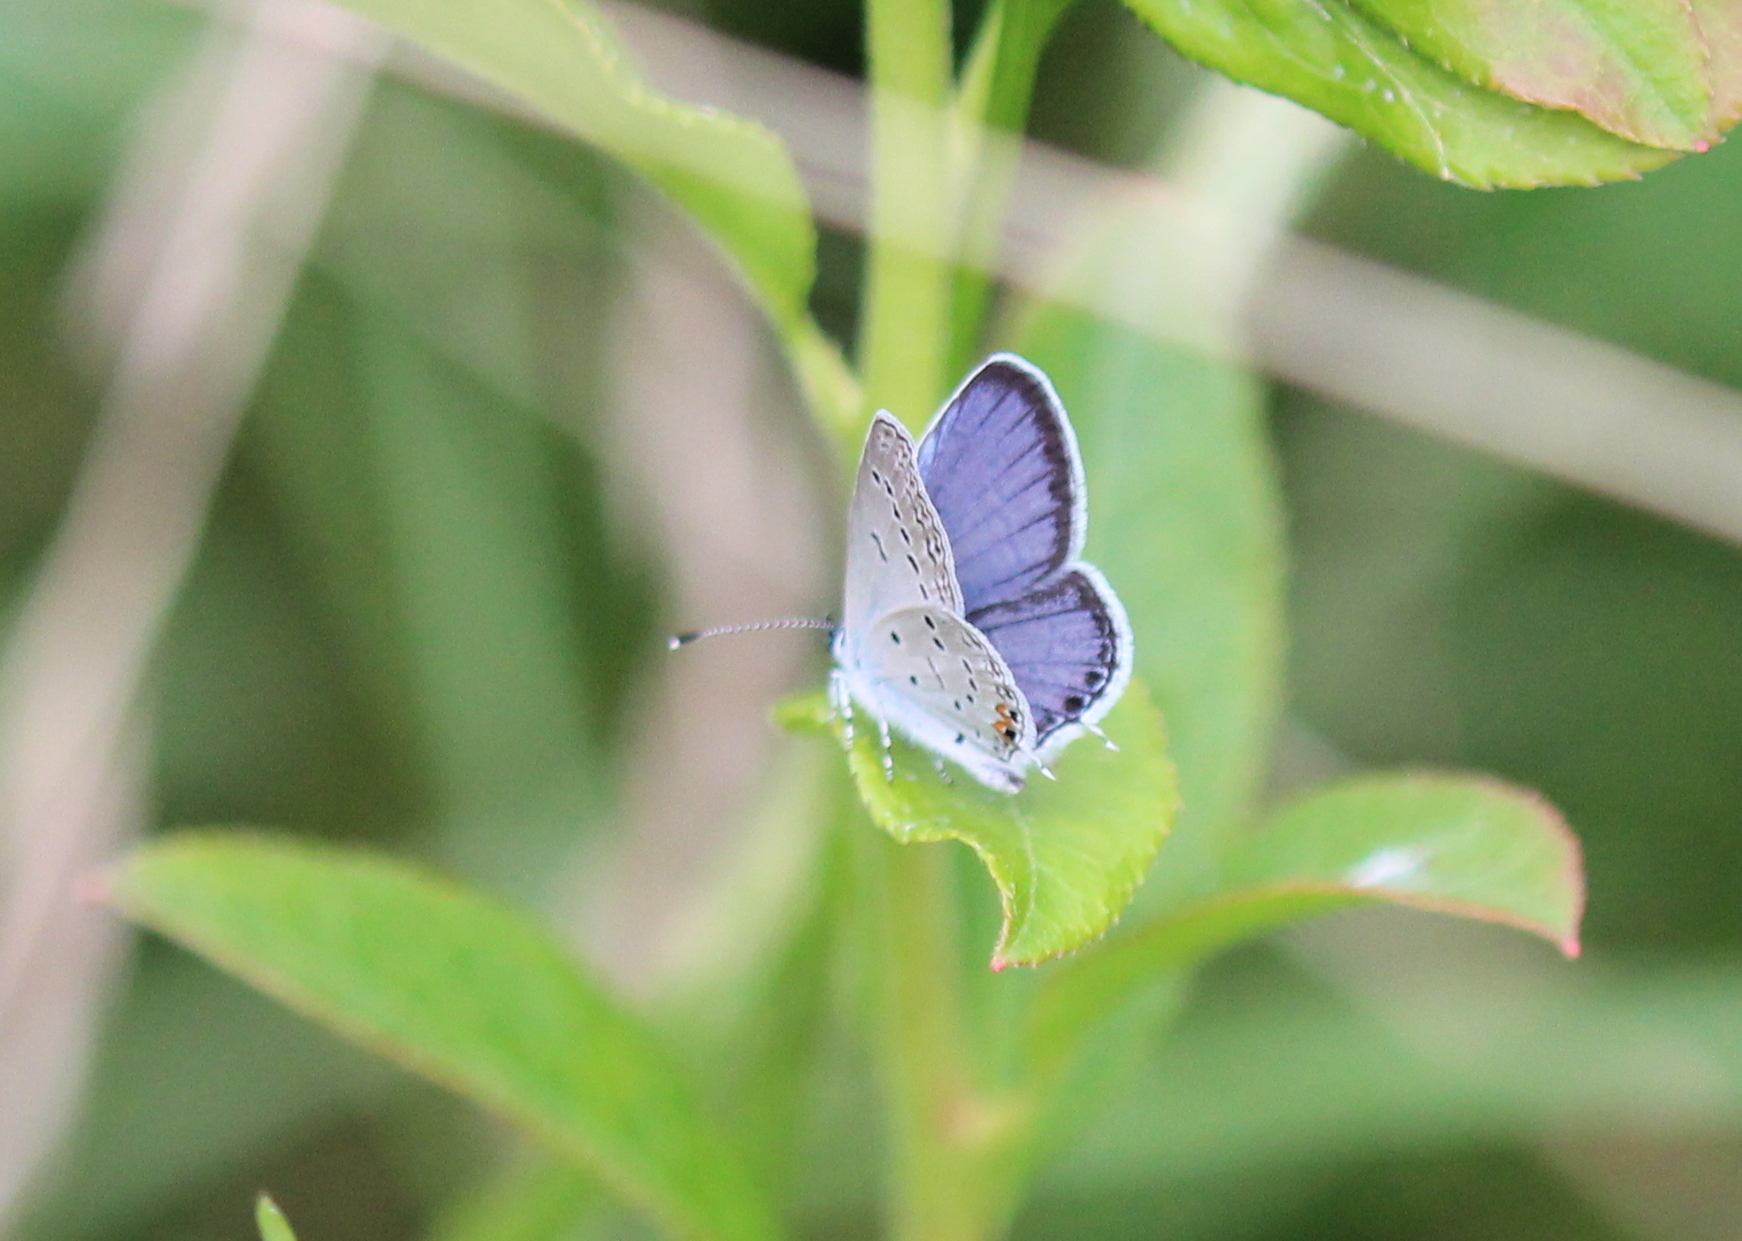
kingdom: Animalia
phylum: Arthropoda
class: Insecta
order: Lepidoptera
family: Lycaenidae
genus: Elkalyce
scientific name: Elkalyce comyntas
